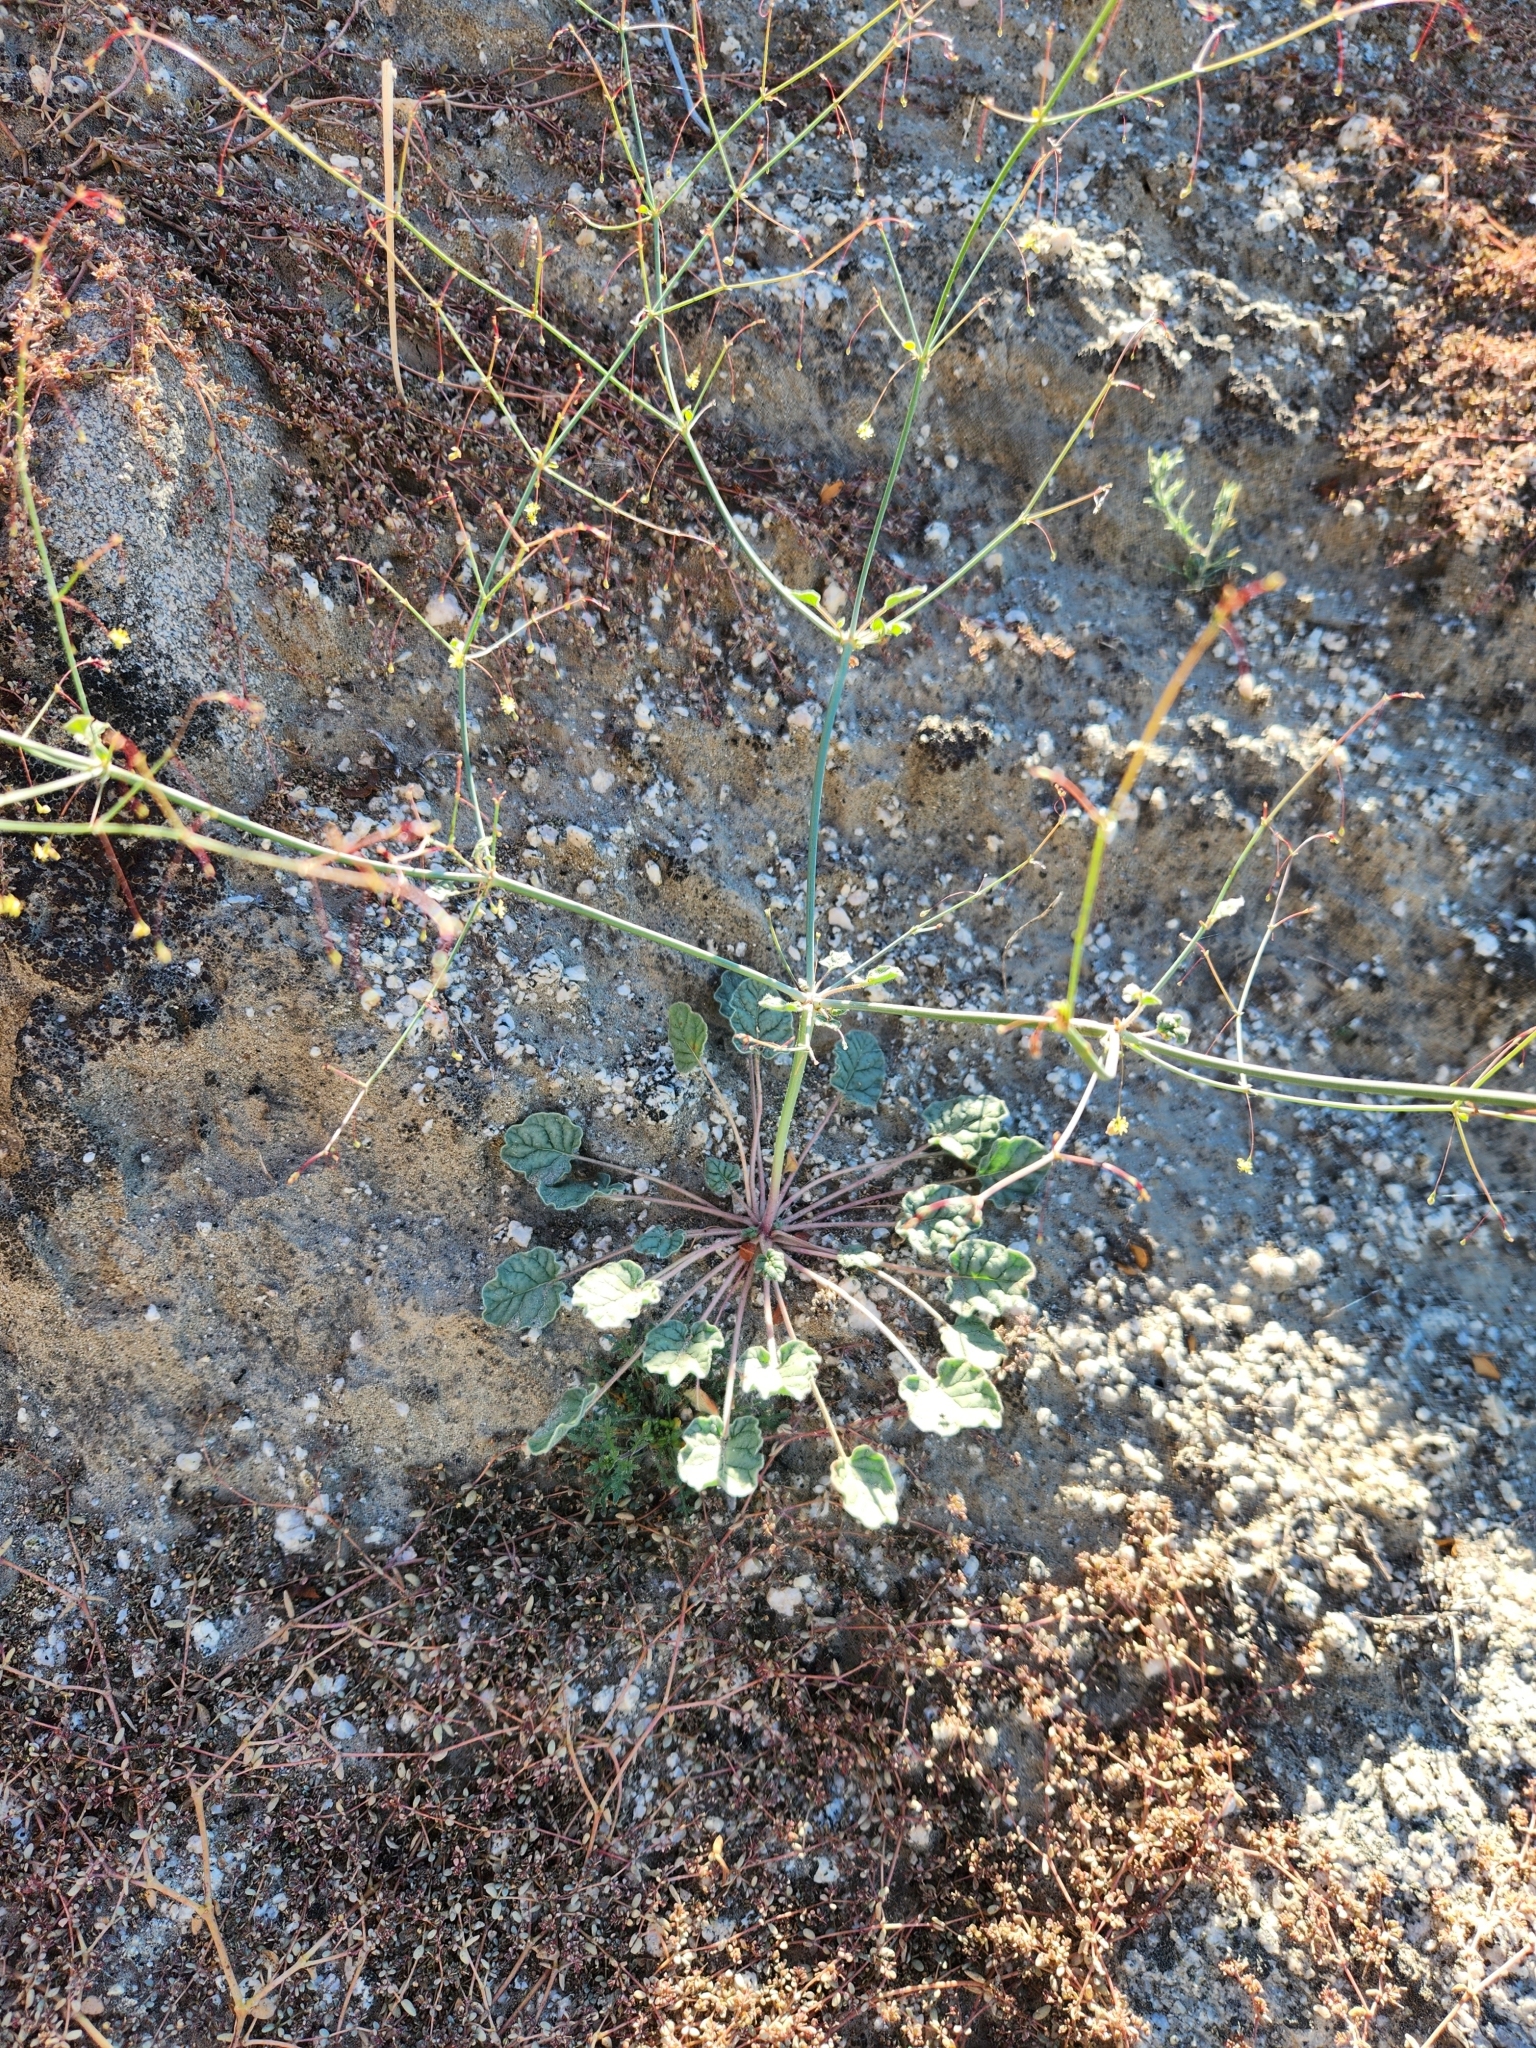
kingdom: Plantae
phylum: Tracheophyta
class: Magnoliopsida
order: Caryophyllales
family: Polygonaceae
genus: Eriogonum
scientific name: Eriogonum inflatum
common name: Desert trumpet
